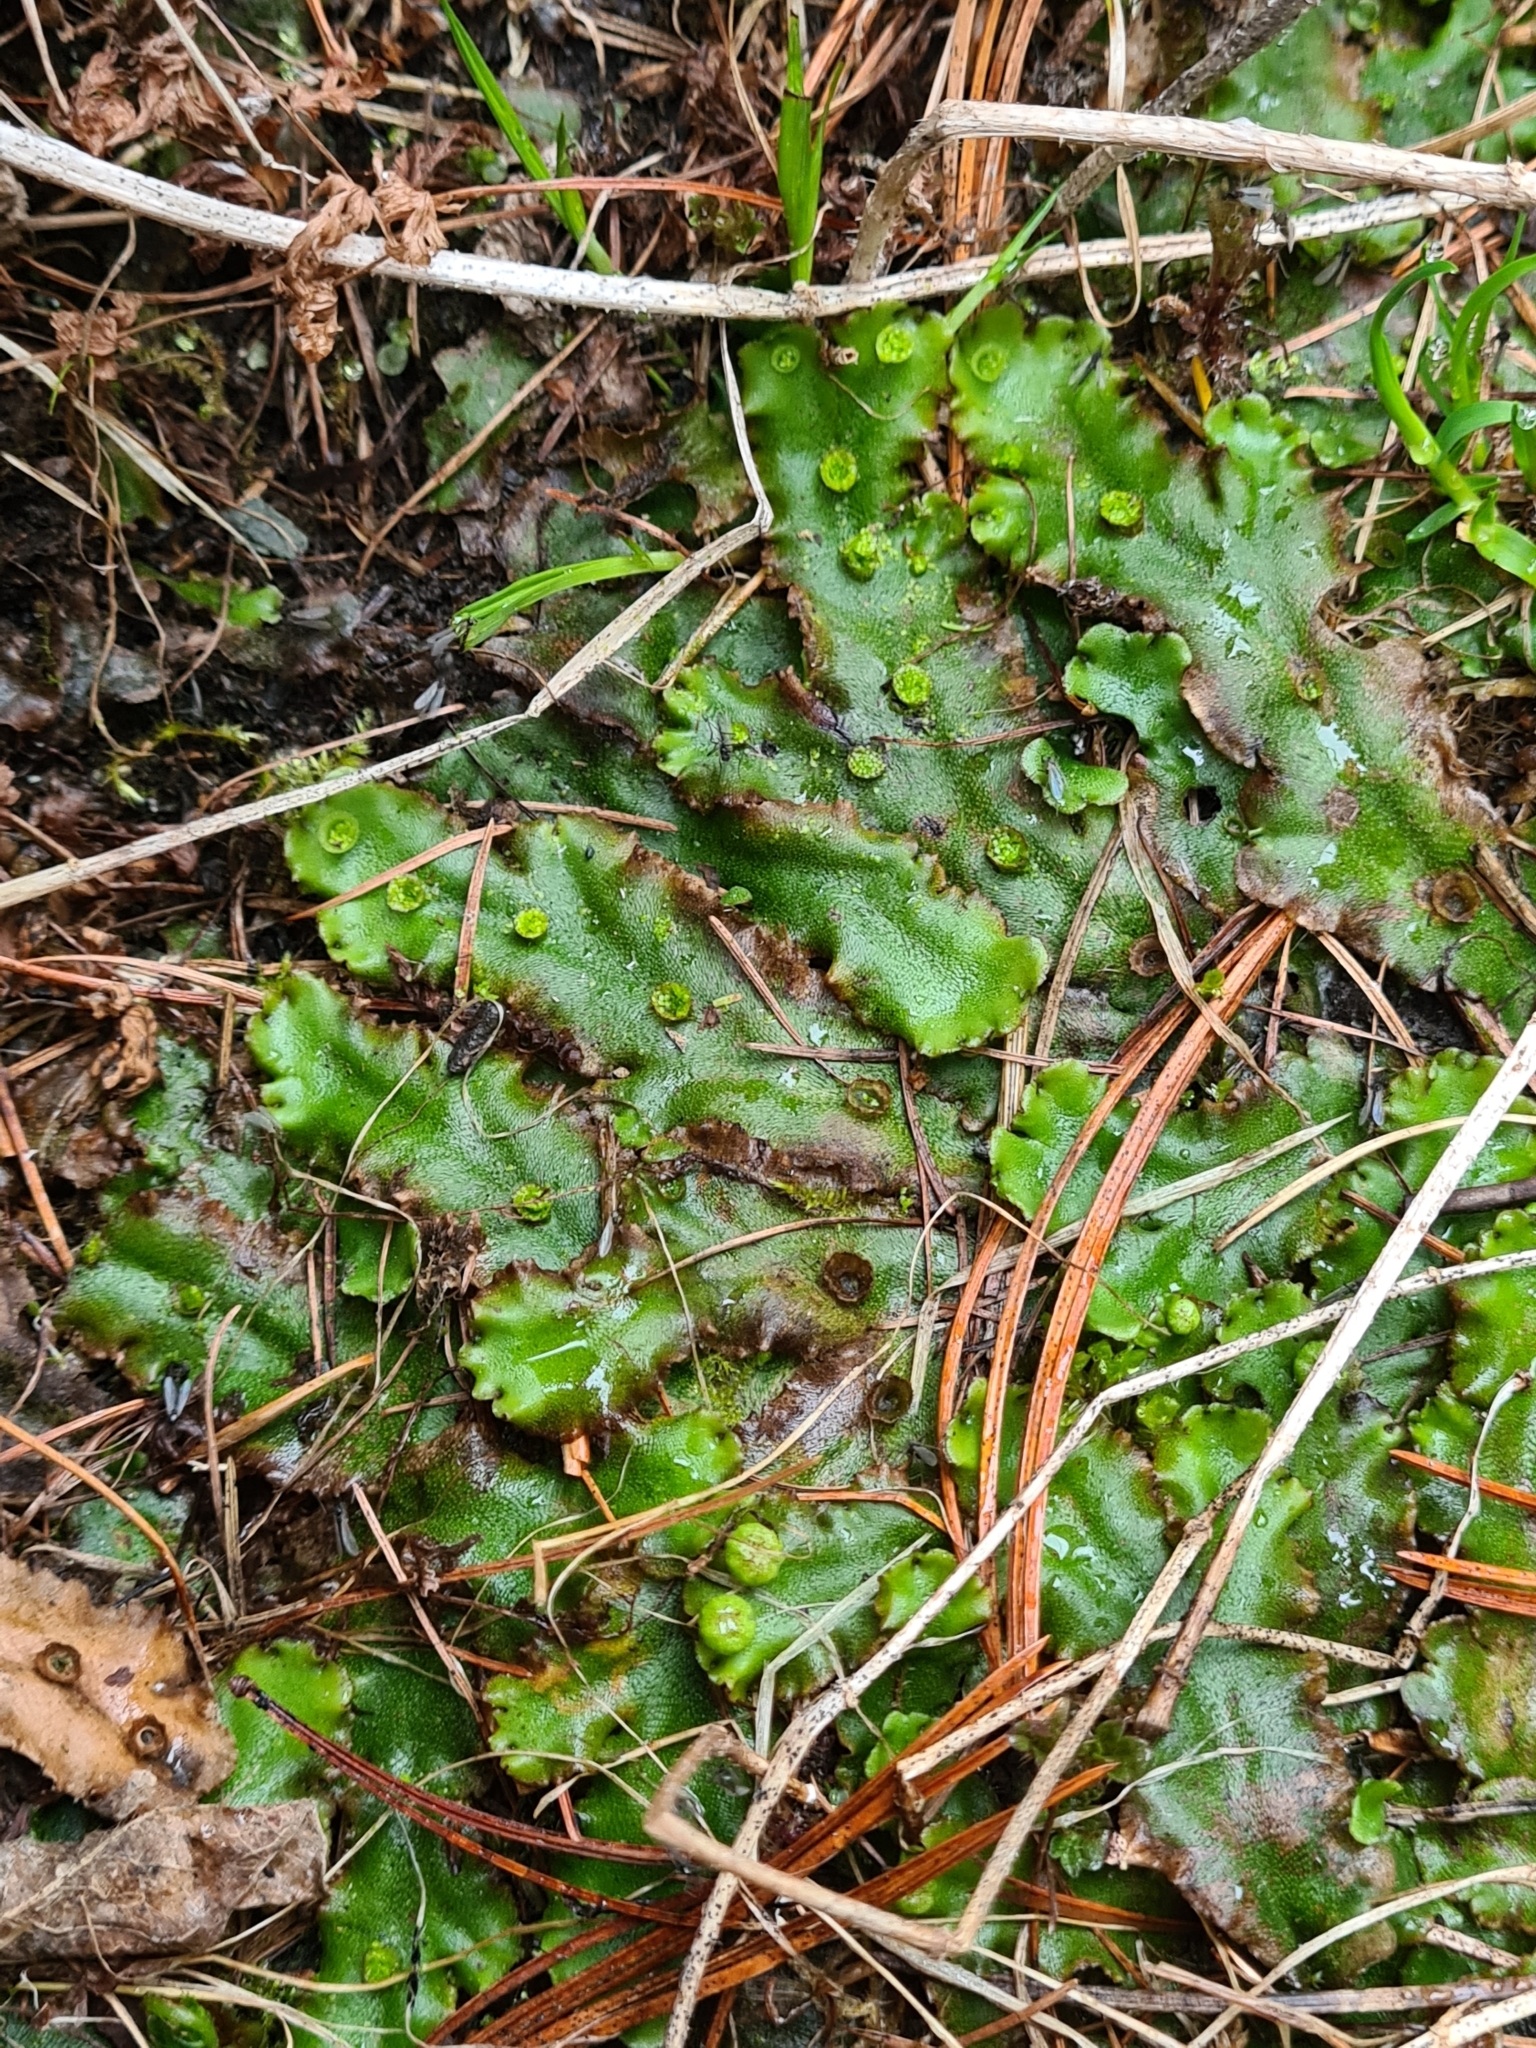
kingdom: Plantae
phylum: Marchantiophyta
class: Marchantiopsida
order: Marchantiales
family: Marchantiaceae
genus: Marchantia
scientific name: Marchantia polymorpha
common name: Common liverwort
